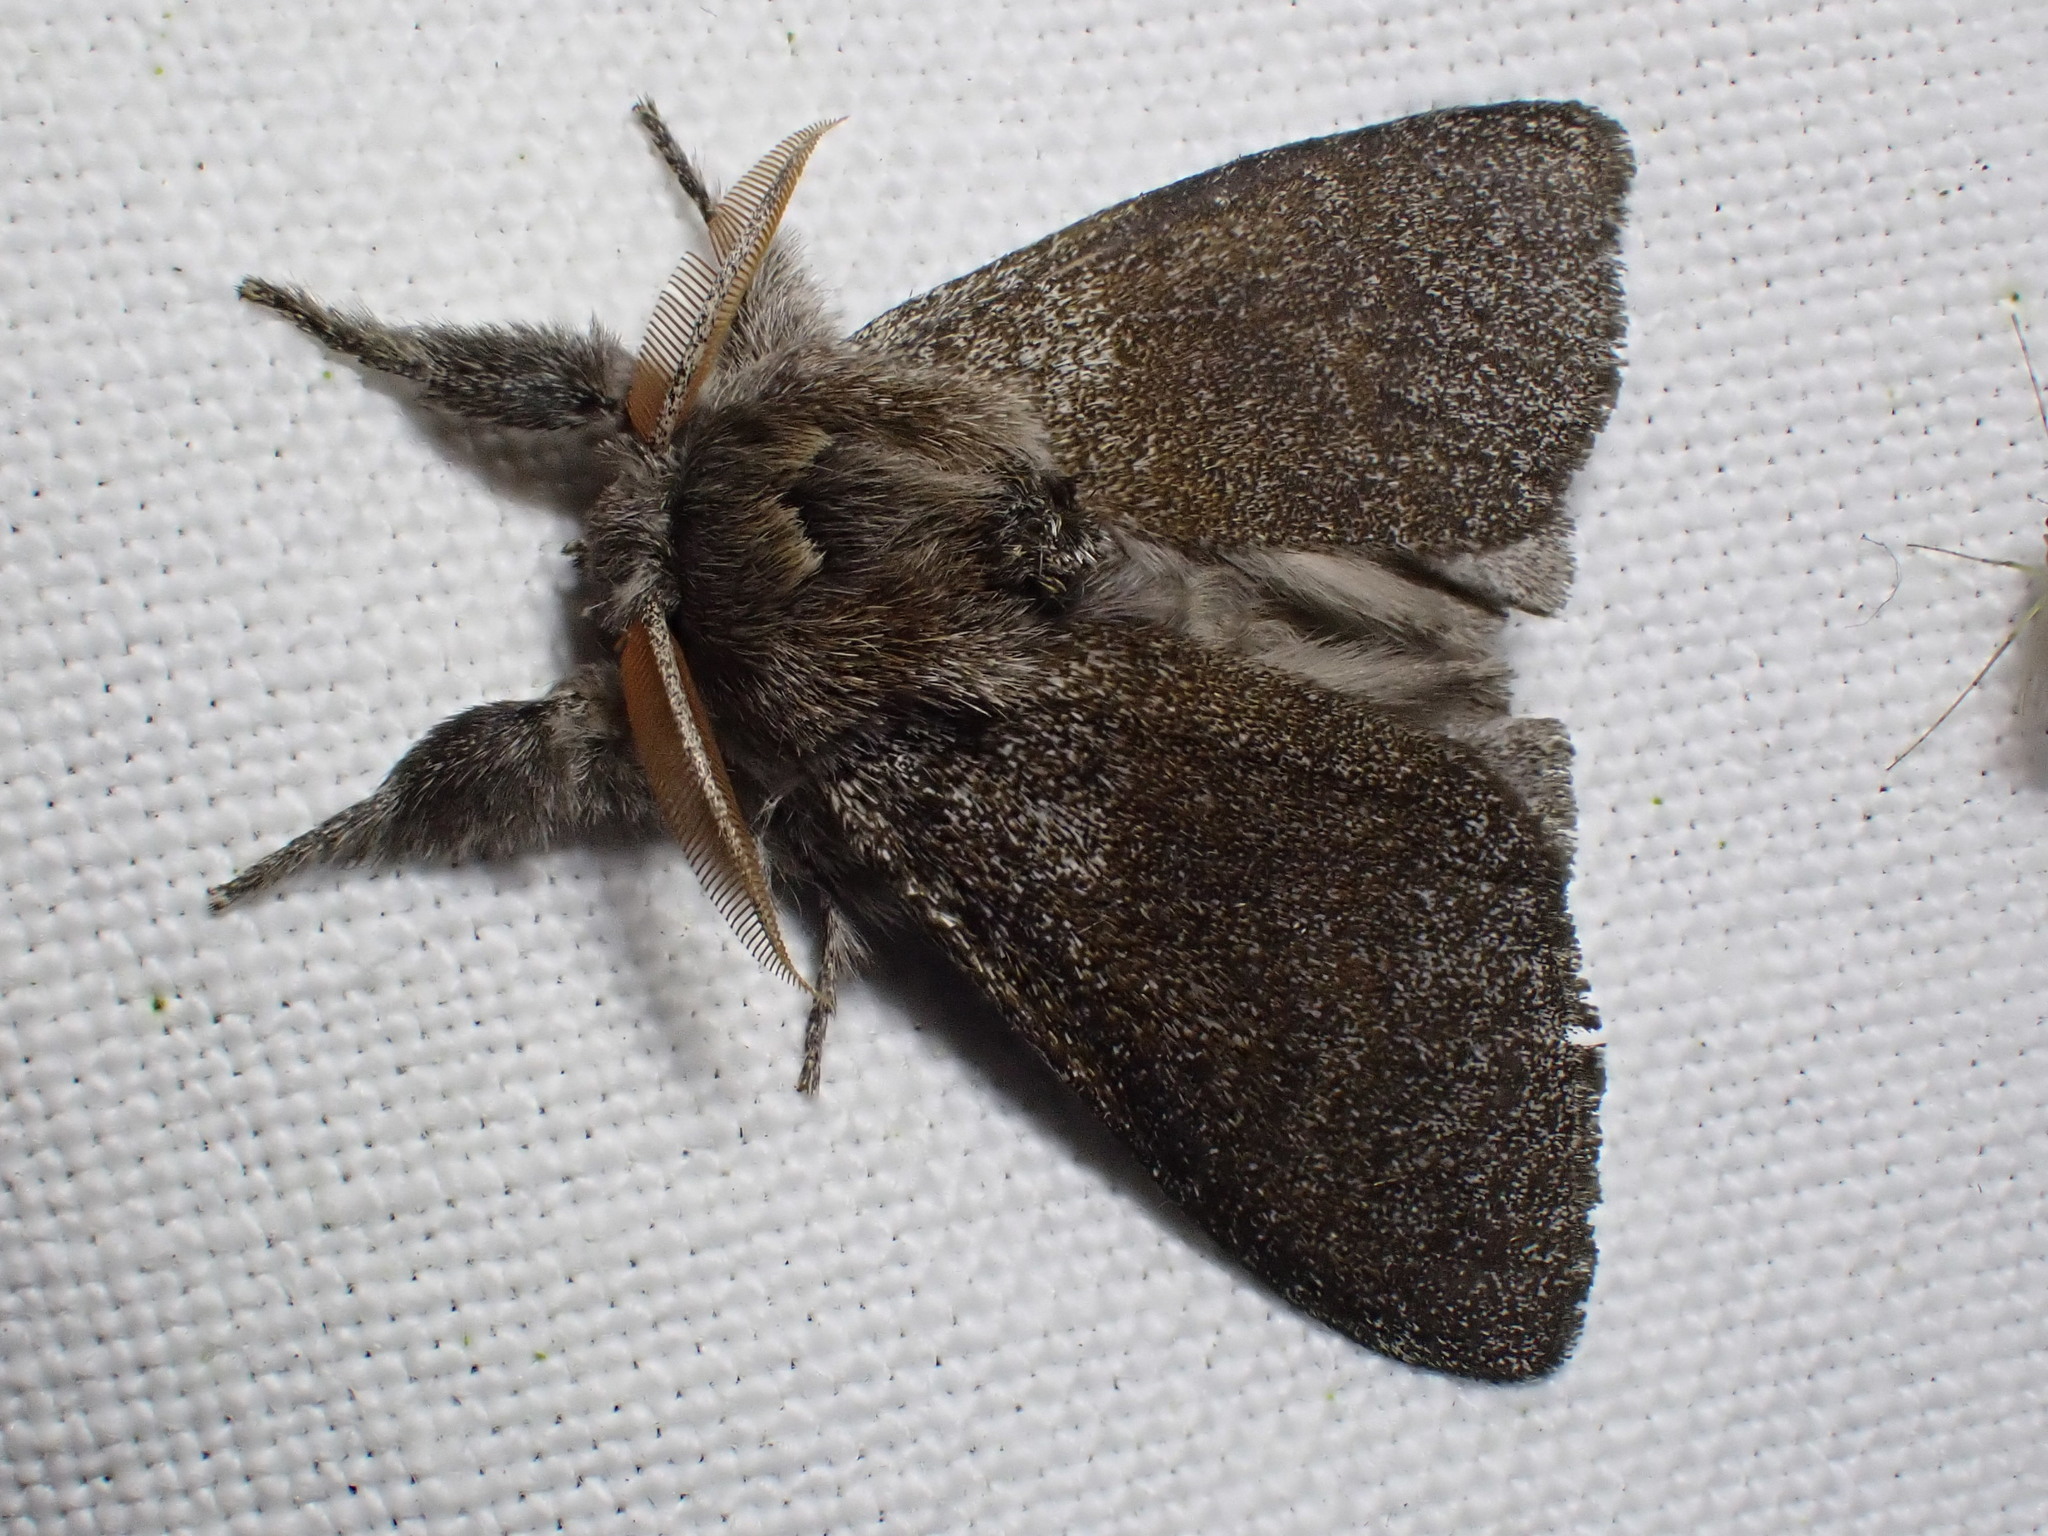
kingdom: Animalia
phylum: Arthropoda
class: Insecta
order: Lepidoptera
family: Erebidae
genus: Calliteara
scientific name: Calliteara pudibunda
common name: Pale tussock
